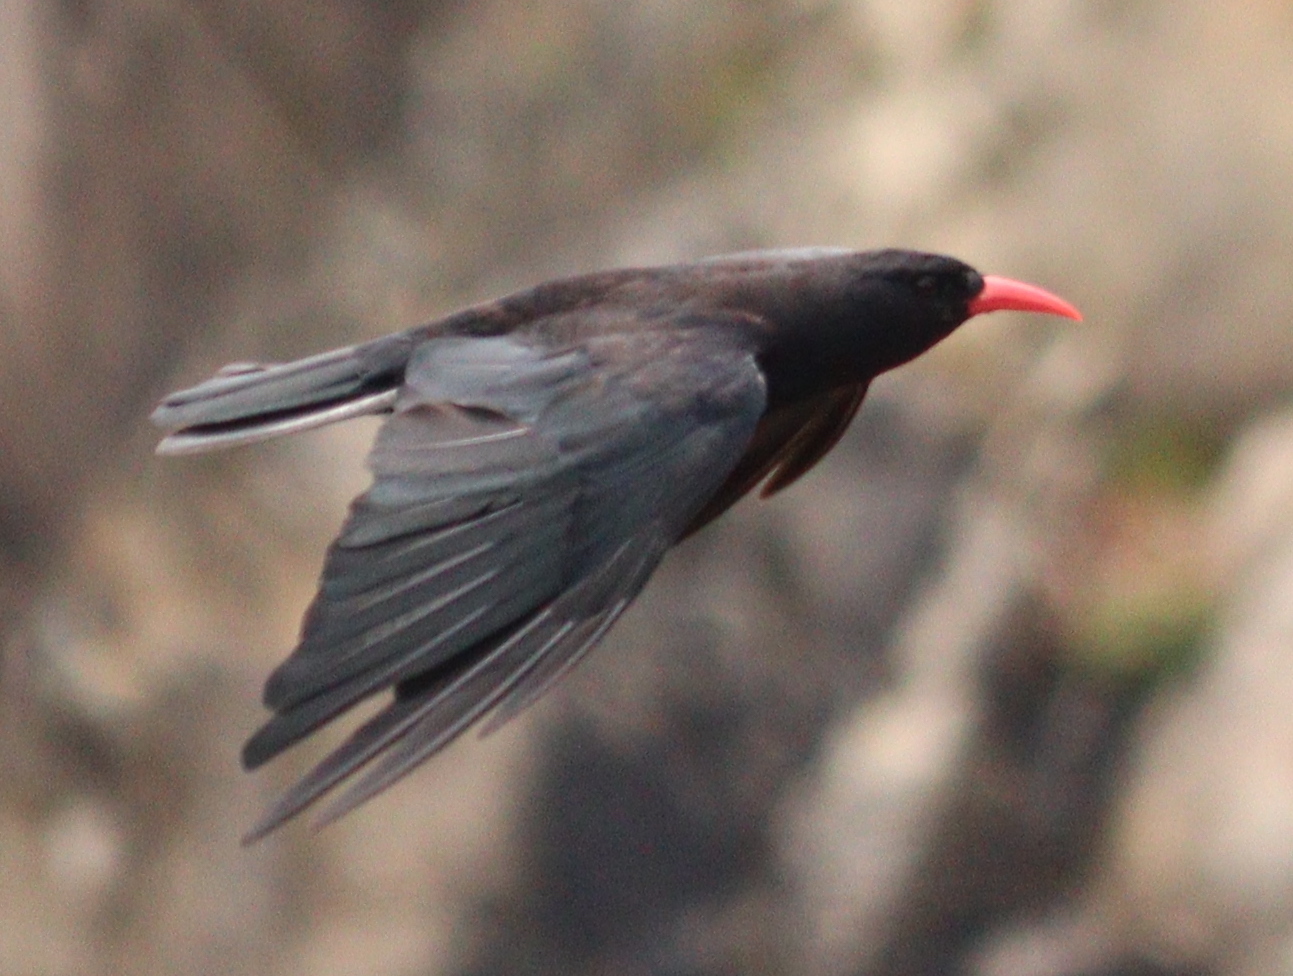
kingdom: Animalia
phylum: Chordata
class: Aves
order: Passeriformes
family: Corvidae
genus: Pyrrhocorax
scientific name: Pyrrhocorax pyrrhocorax
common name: Red-billed chough
